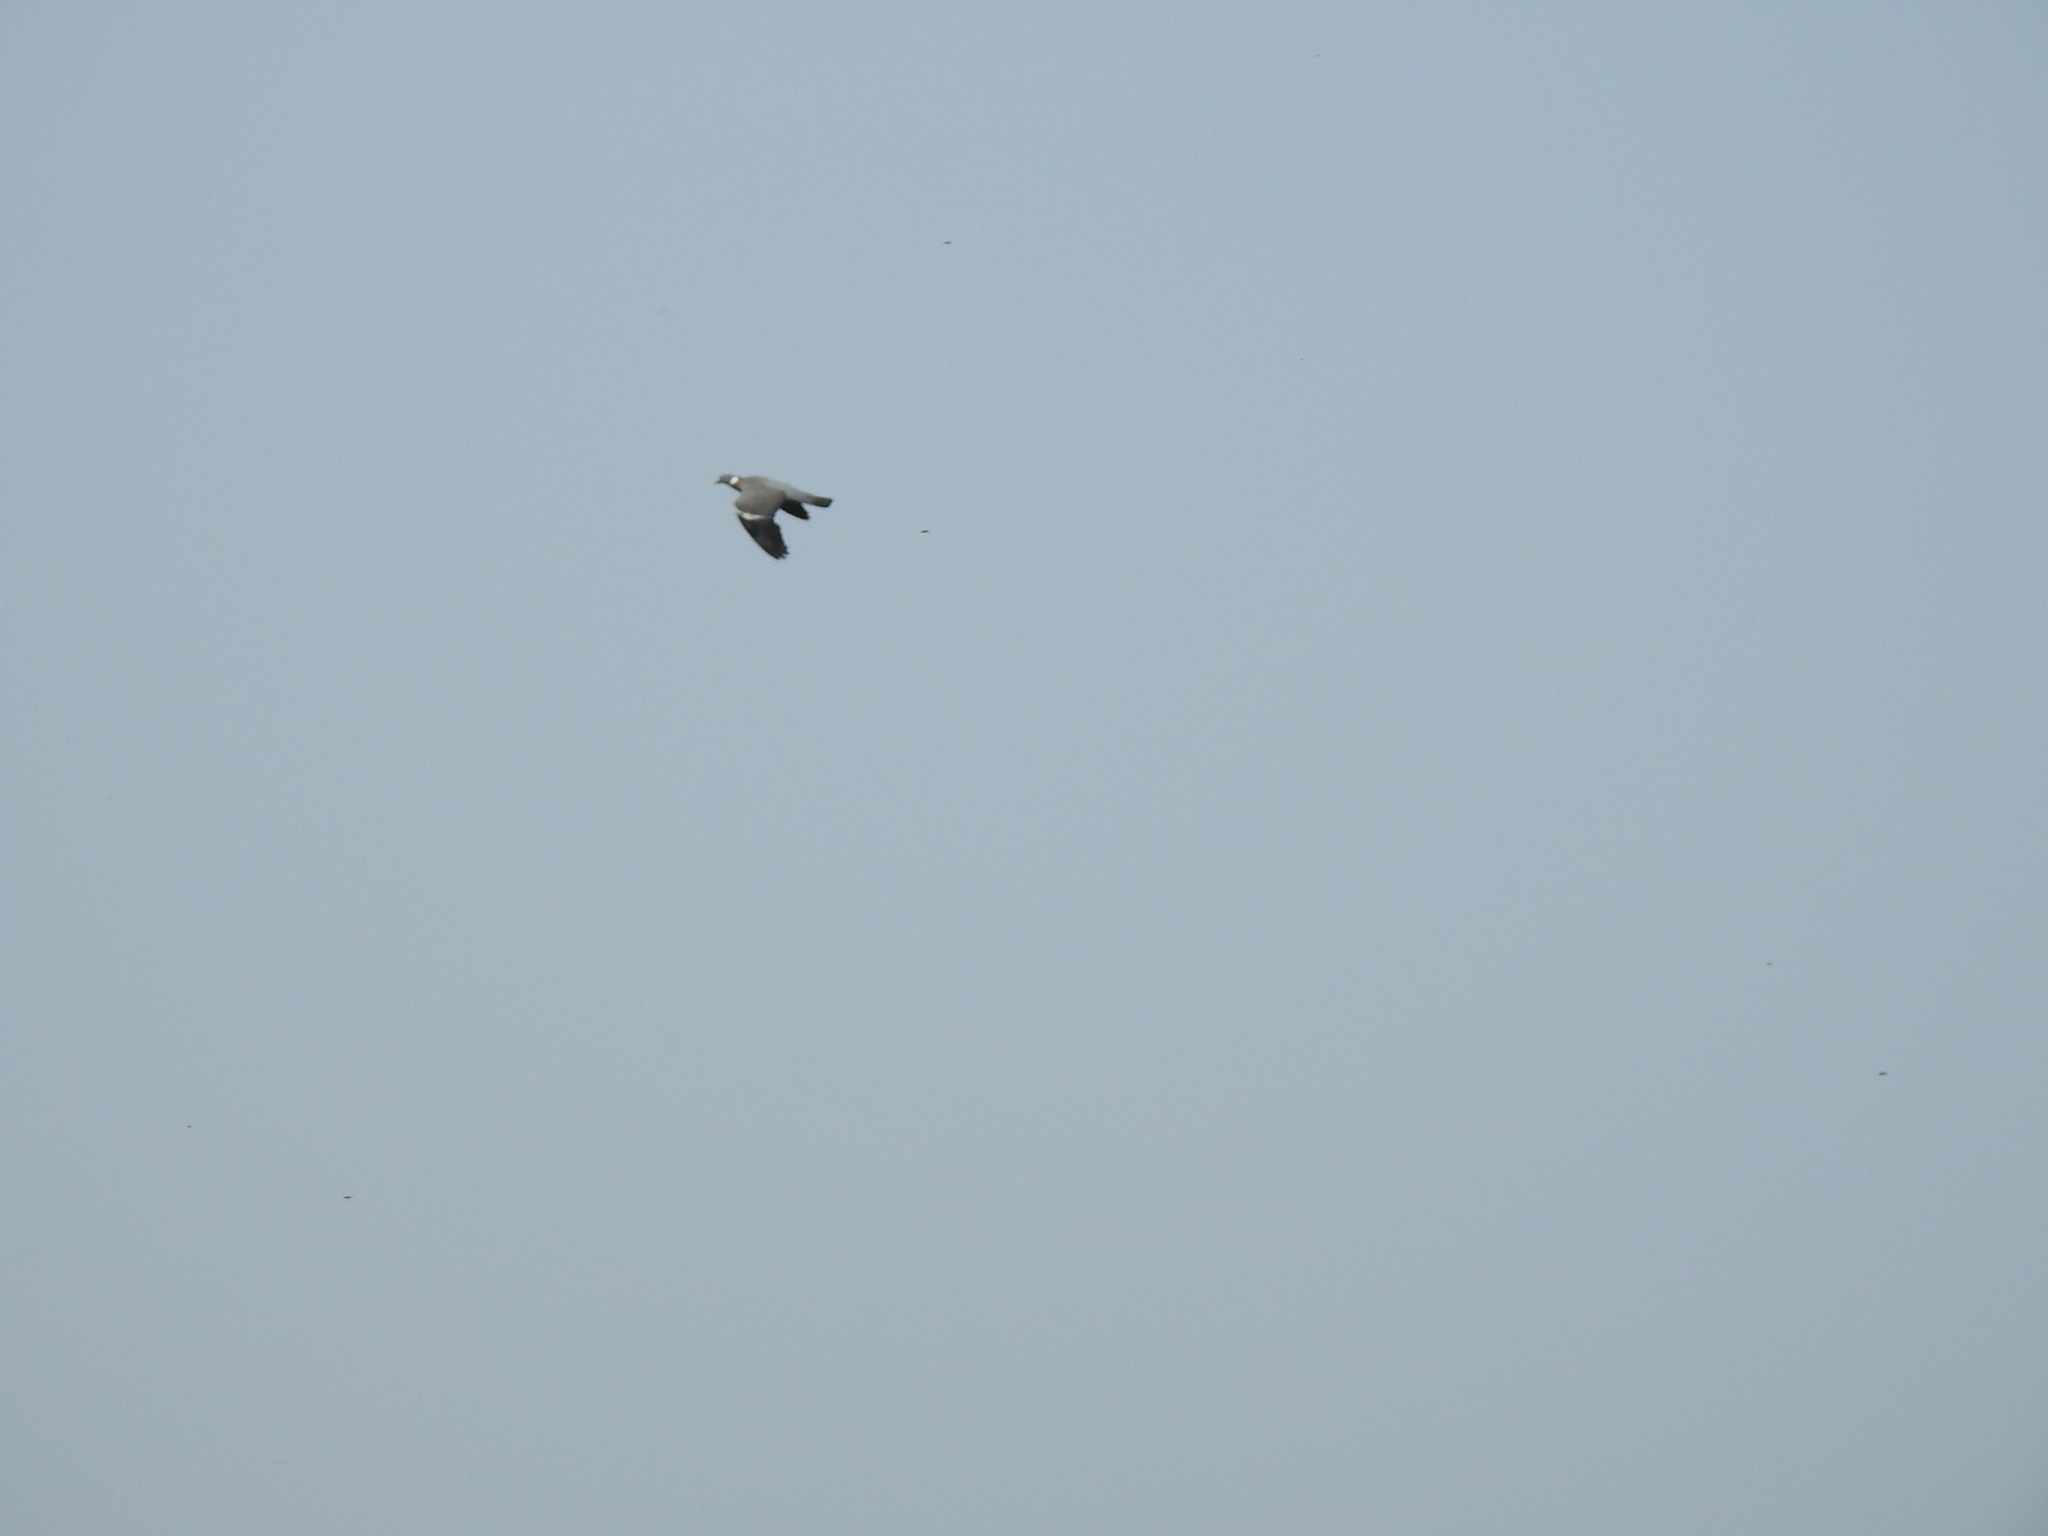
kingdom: Animalia
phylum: Chordata
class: Aves
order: Columbiformes
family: Columbidae
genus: Columba
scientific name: Columba palumbus
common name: Common wood pigeon
